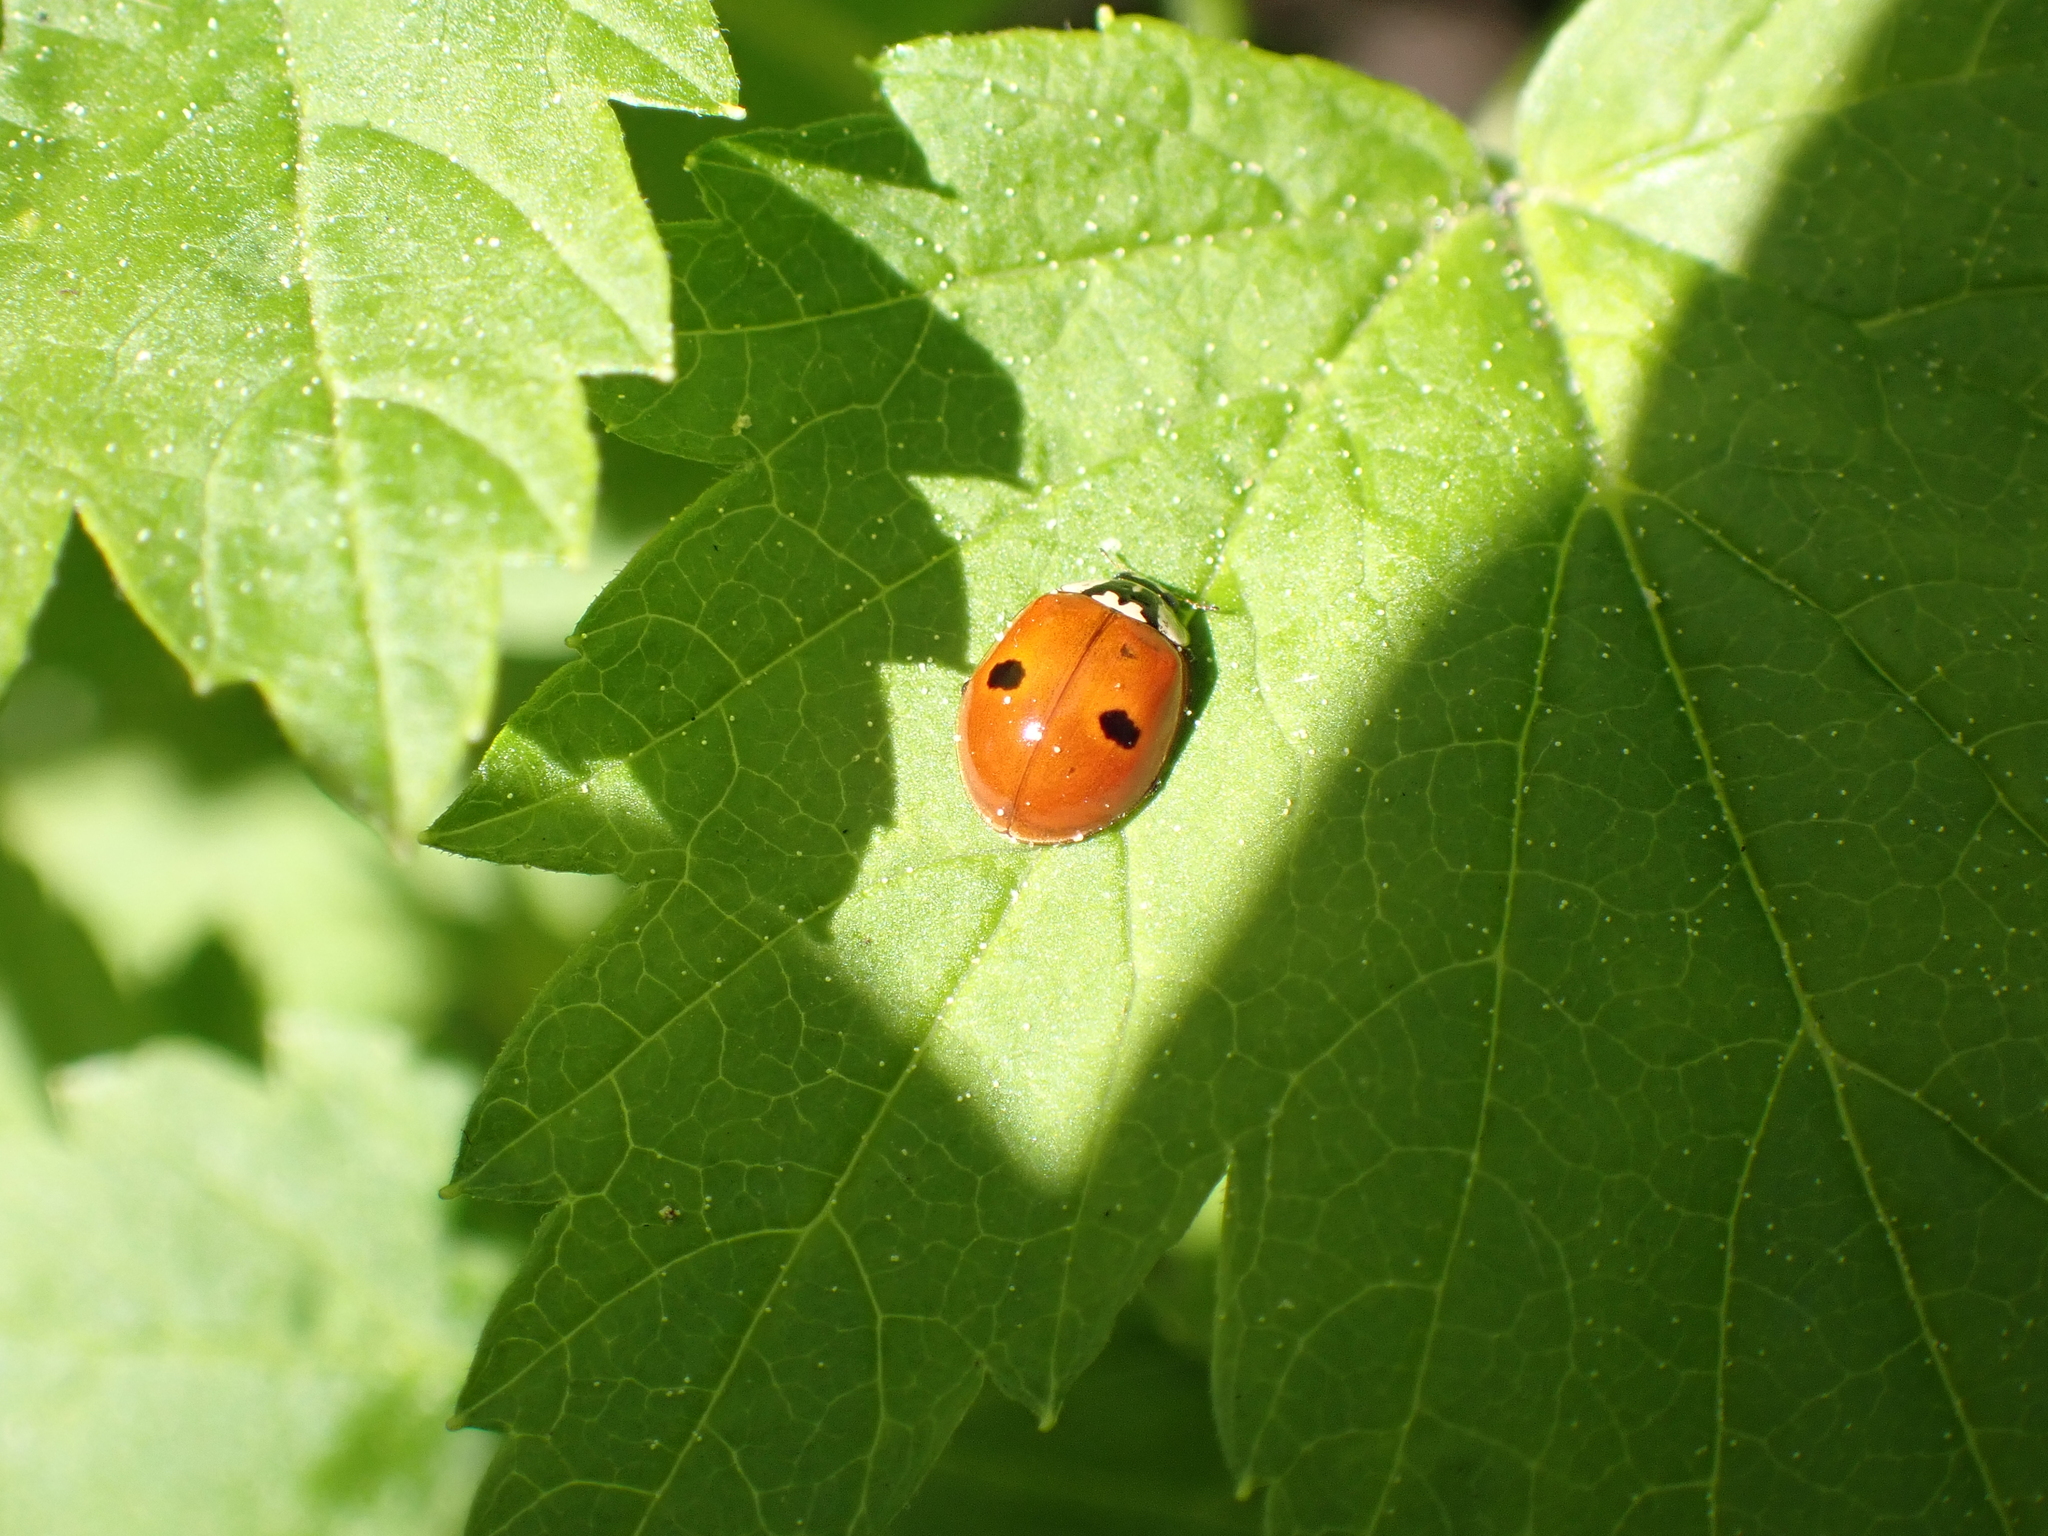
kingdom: Animalia
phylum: Arthropoda
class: Insecta
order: Coleoptera
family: Coccinellidae
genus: Adalia
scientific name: Adalia bipunctata
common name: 2-spot ladybird
